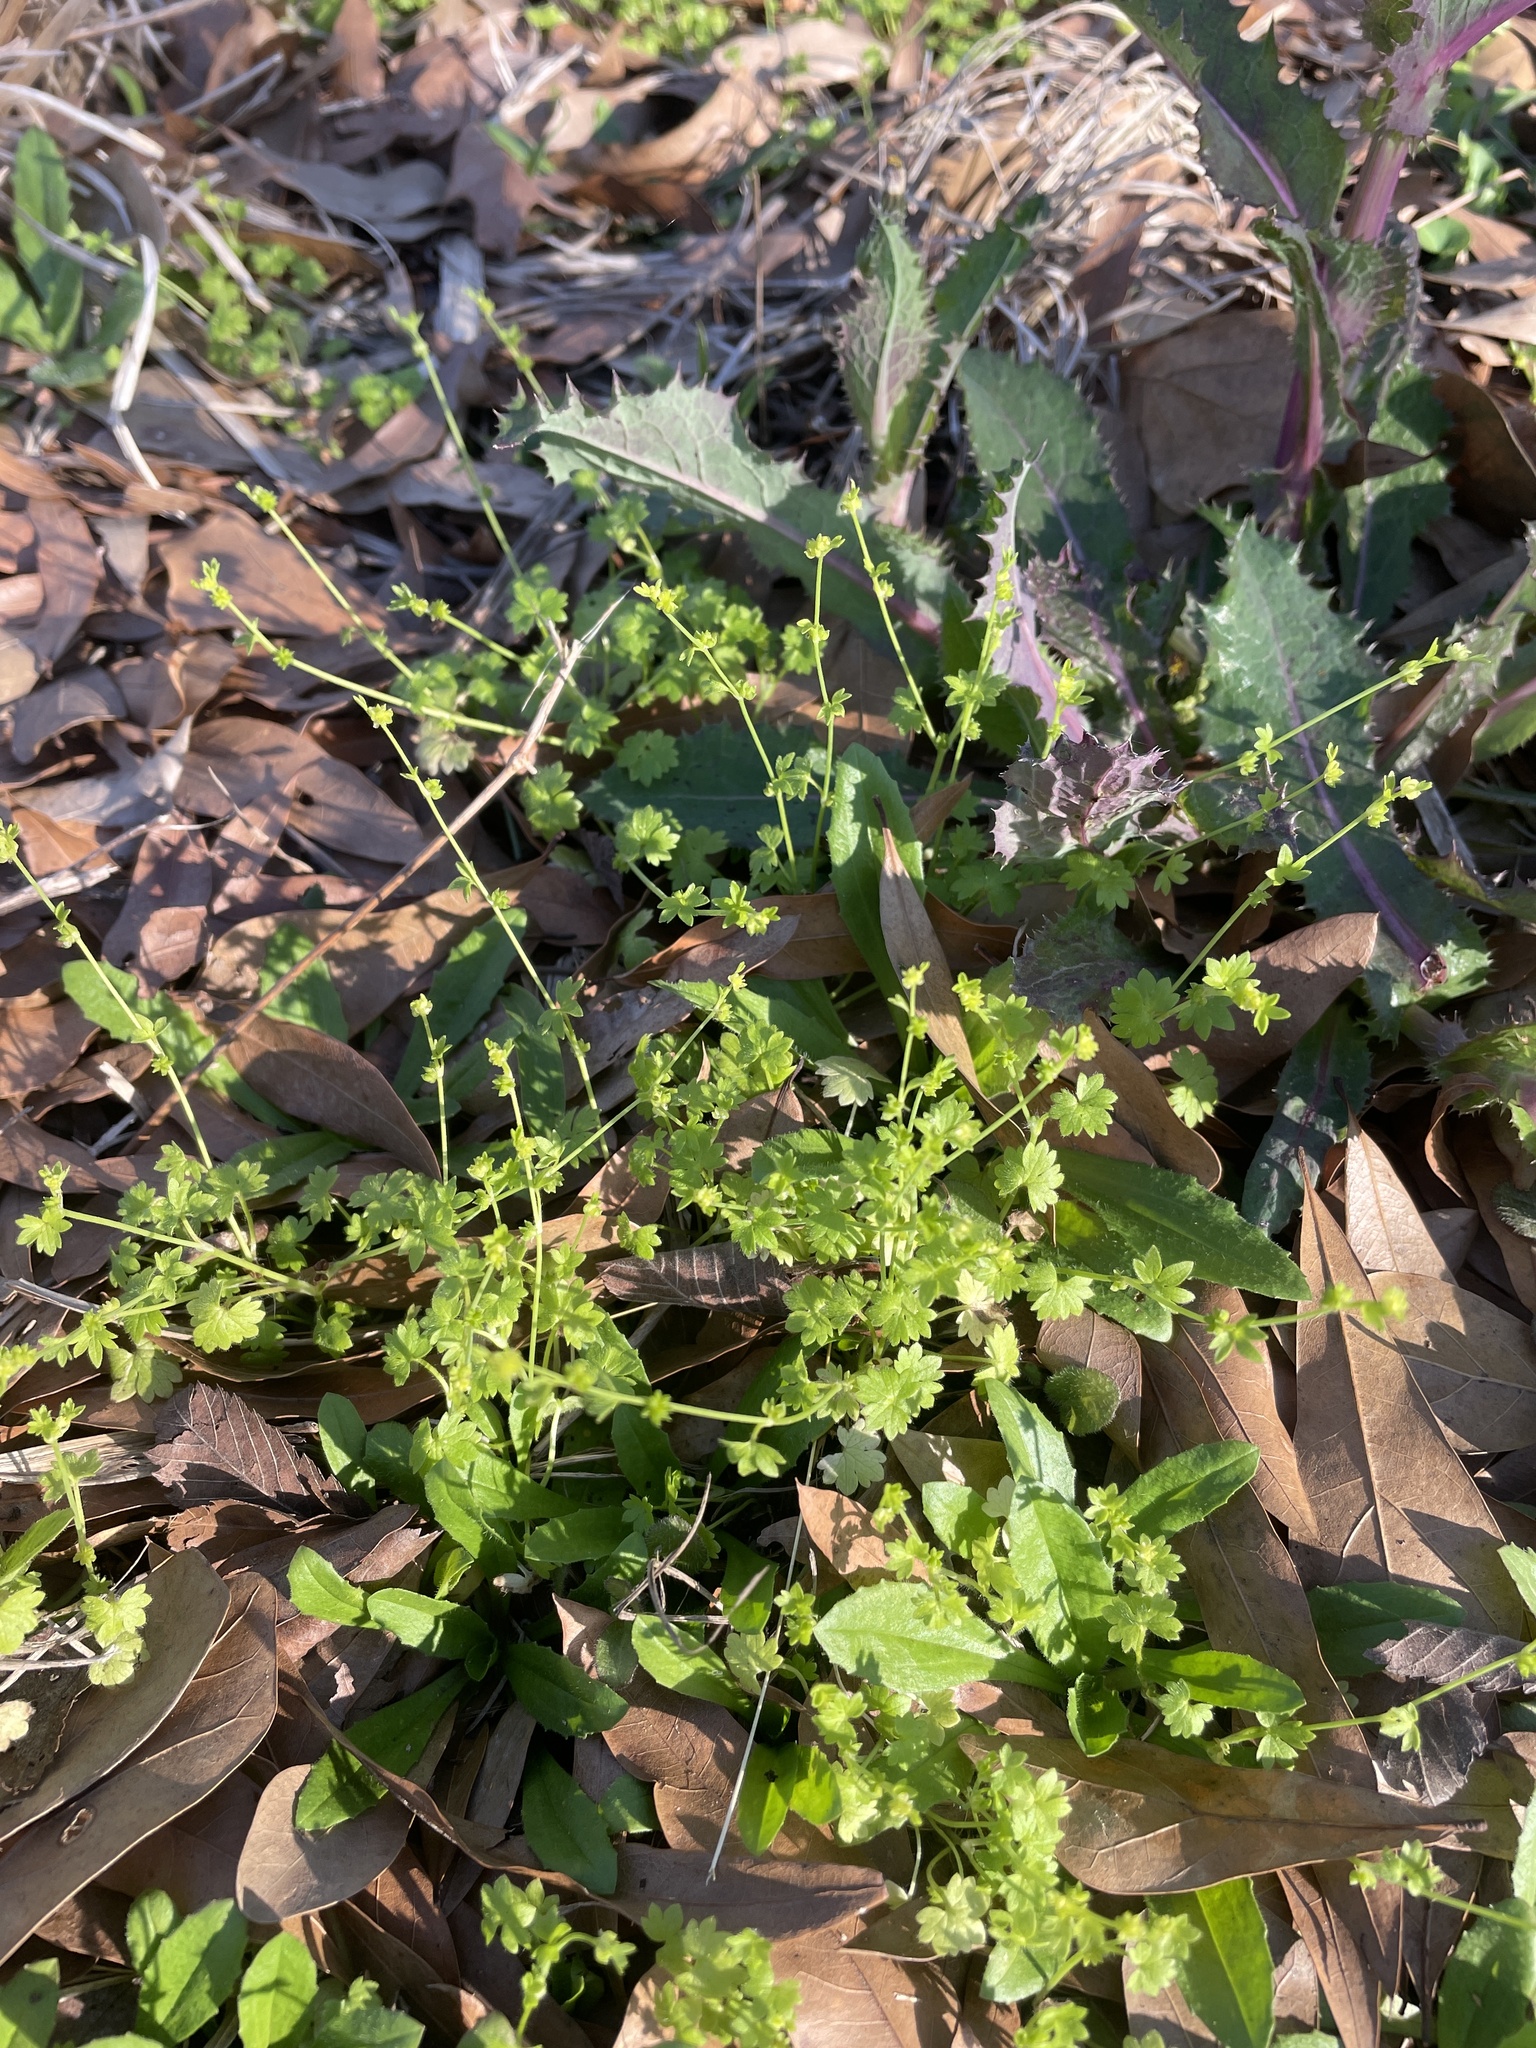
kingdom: Plantae
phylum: Tracheophyta
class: Magnoliopsida
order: Ranunculales
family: Ranunculaceae
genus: Ranunculus
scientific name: Ranunculus platensis
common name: Prairie buttercup
